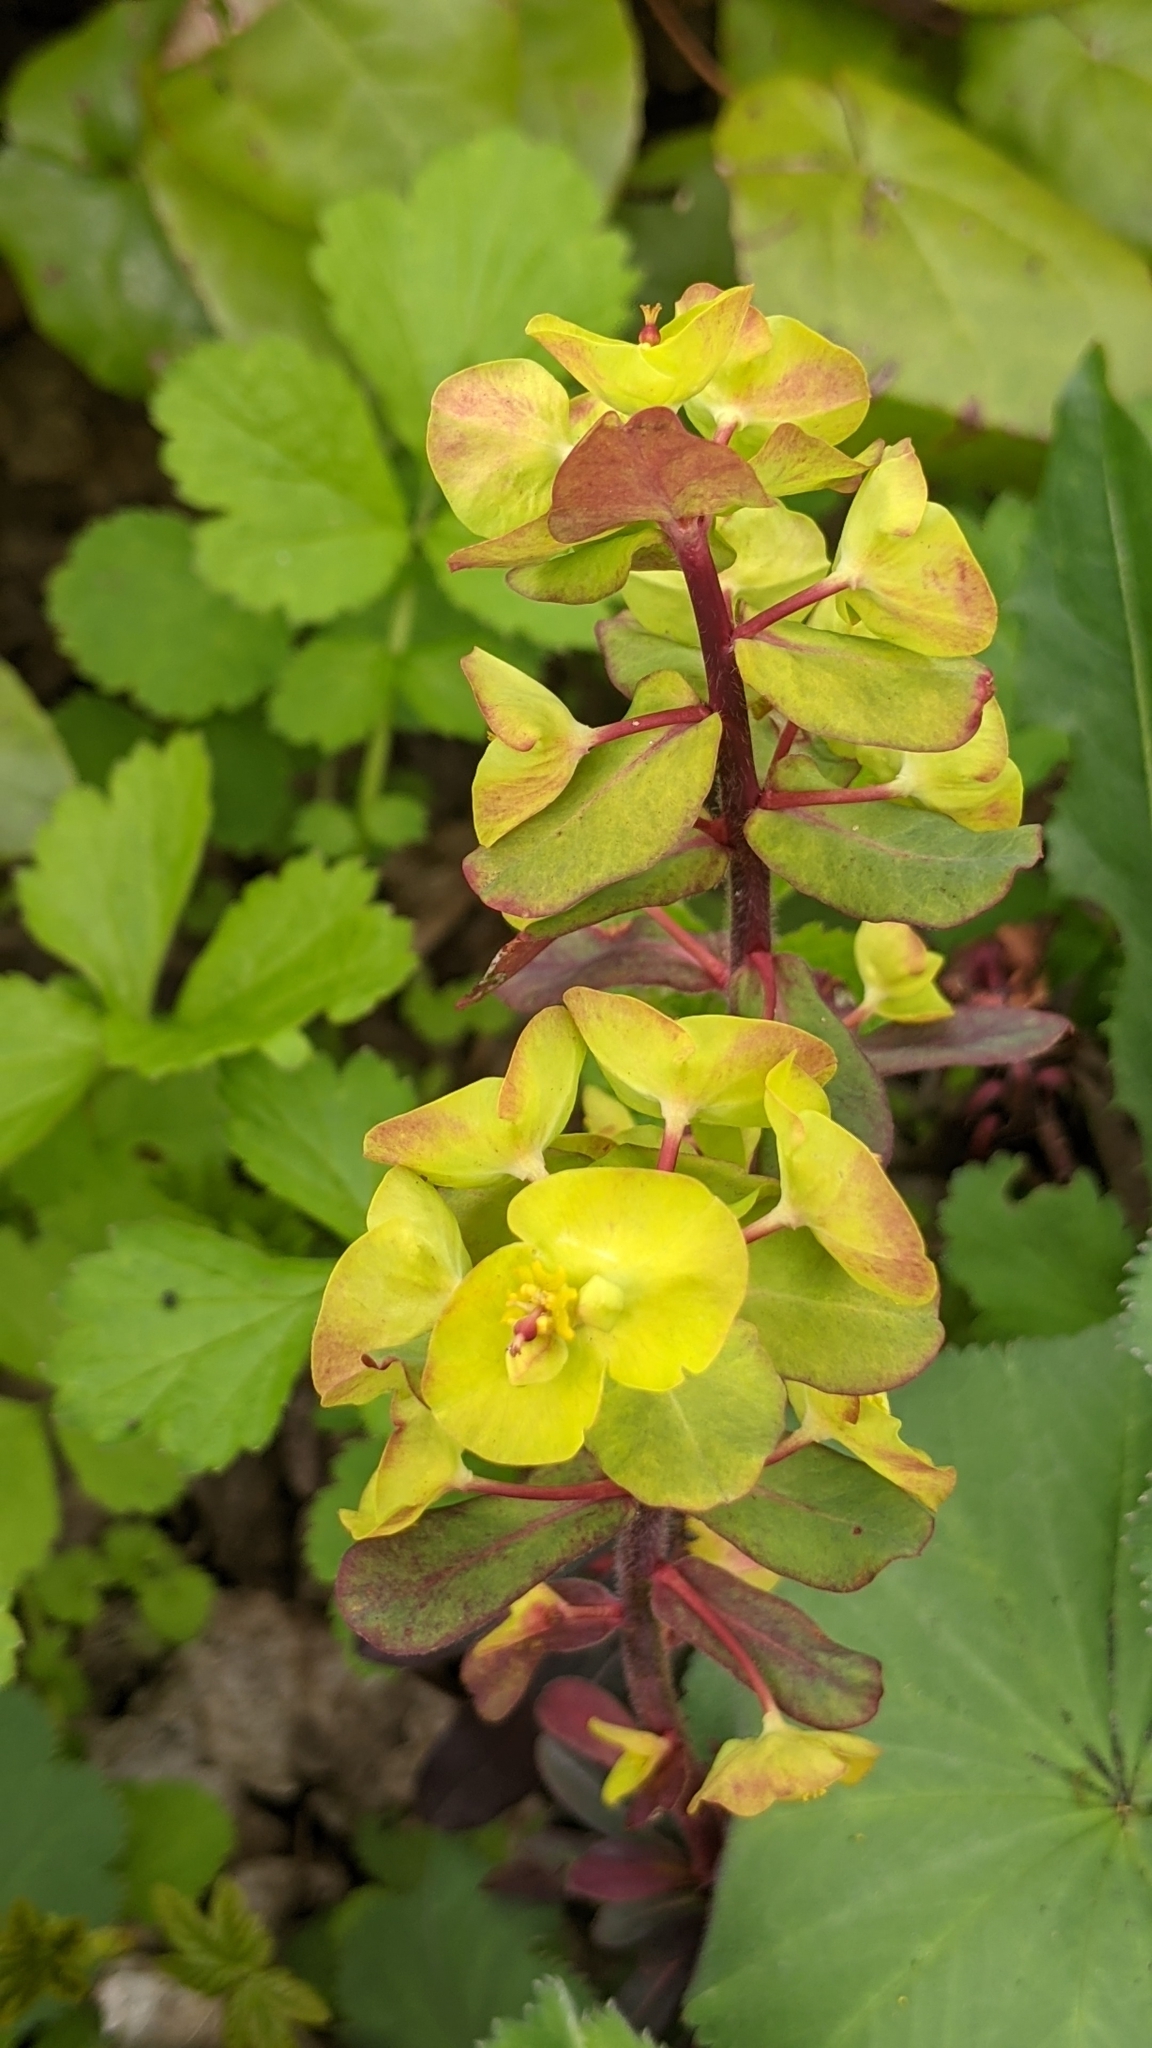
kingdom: Plantae
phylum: Tracheophyta
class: Magnoliopsida
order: Malpighiales
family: Euphorbiaceae
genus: Euphorbia
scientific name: Euphorbia amygdaloides
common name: Wood spurge
